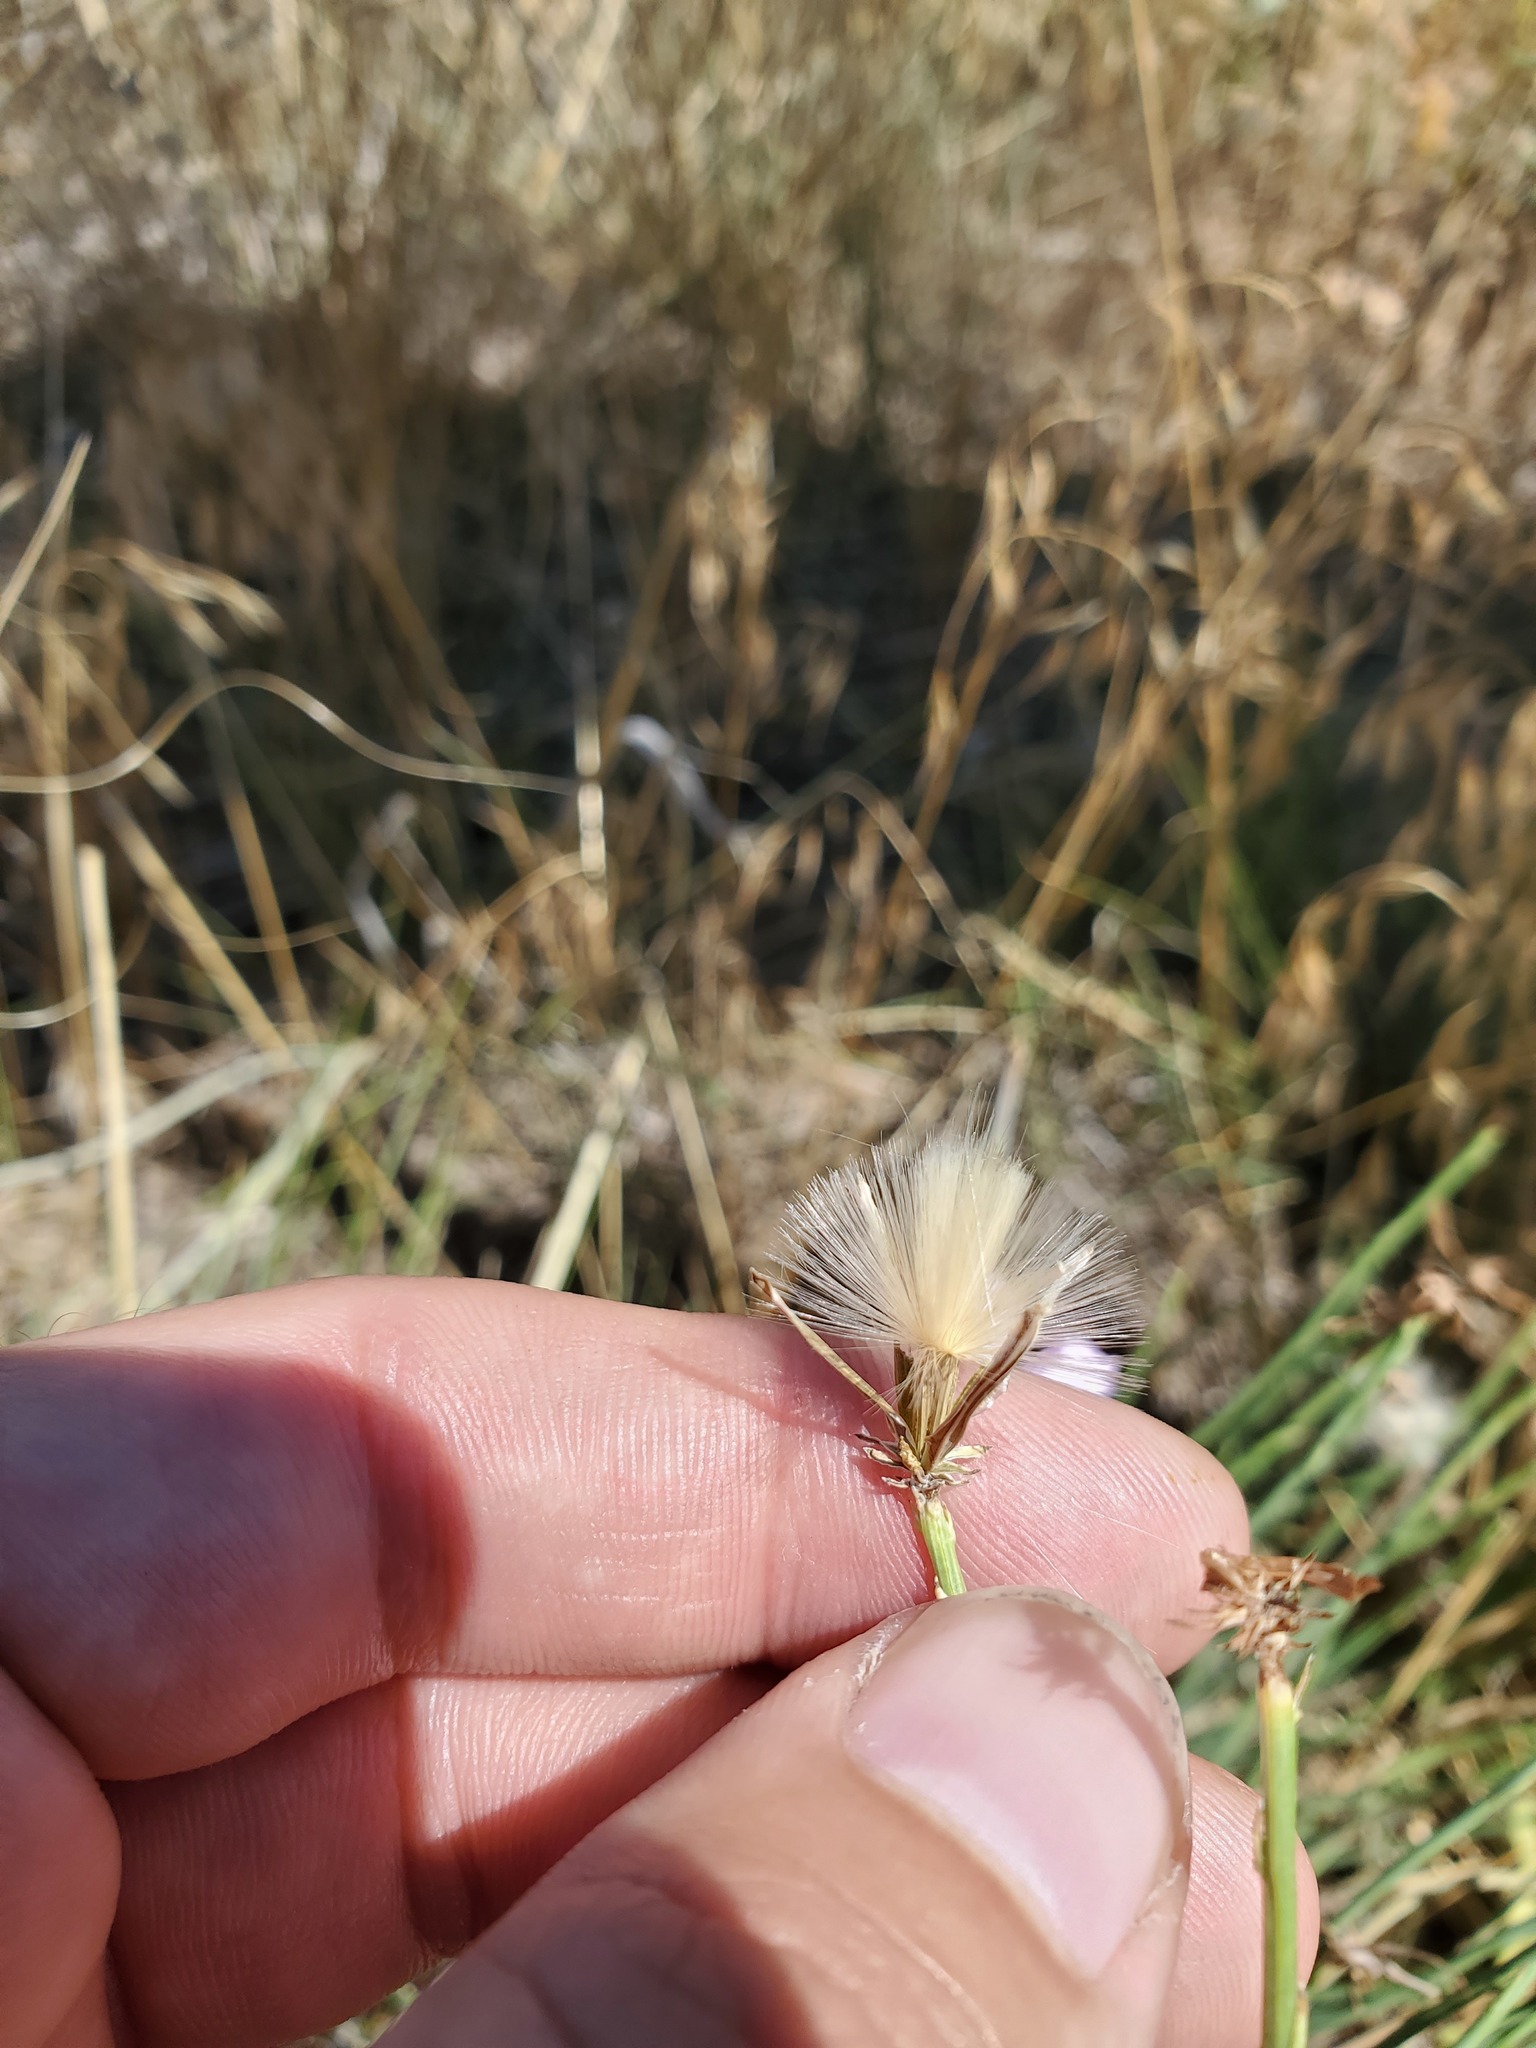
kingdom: Plantae
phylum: Tracheophyta
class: Magnoliopsida
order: Asterales
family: Asteraceae
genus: Lygodesmia
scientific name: Lygodesmia juncea
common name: Common skeletonweed
